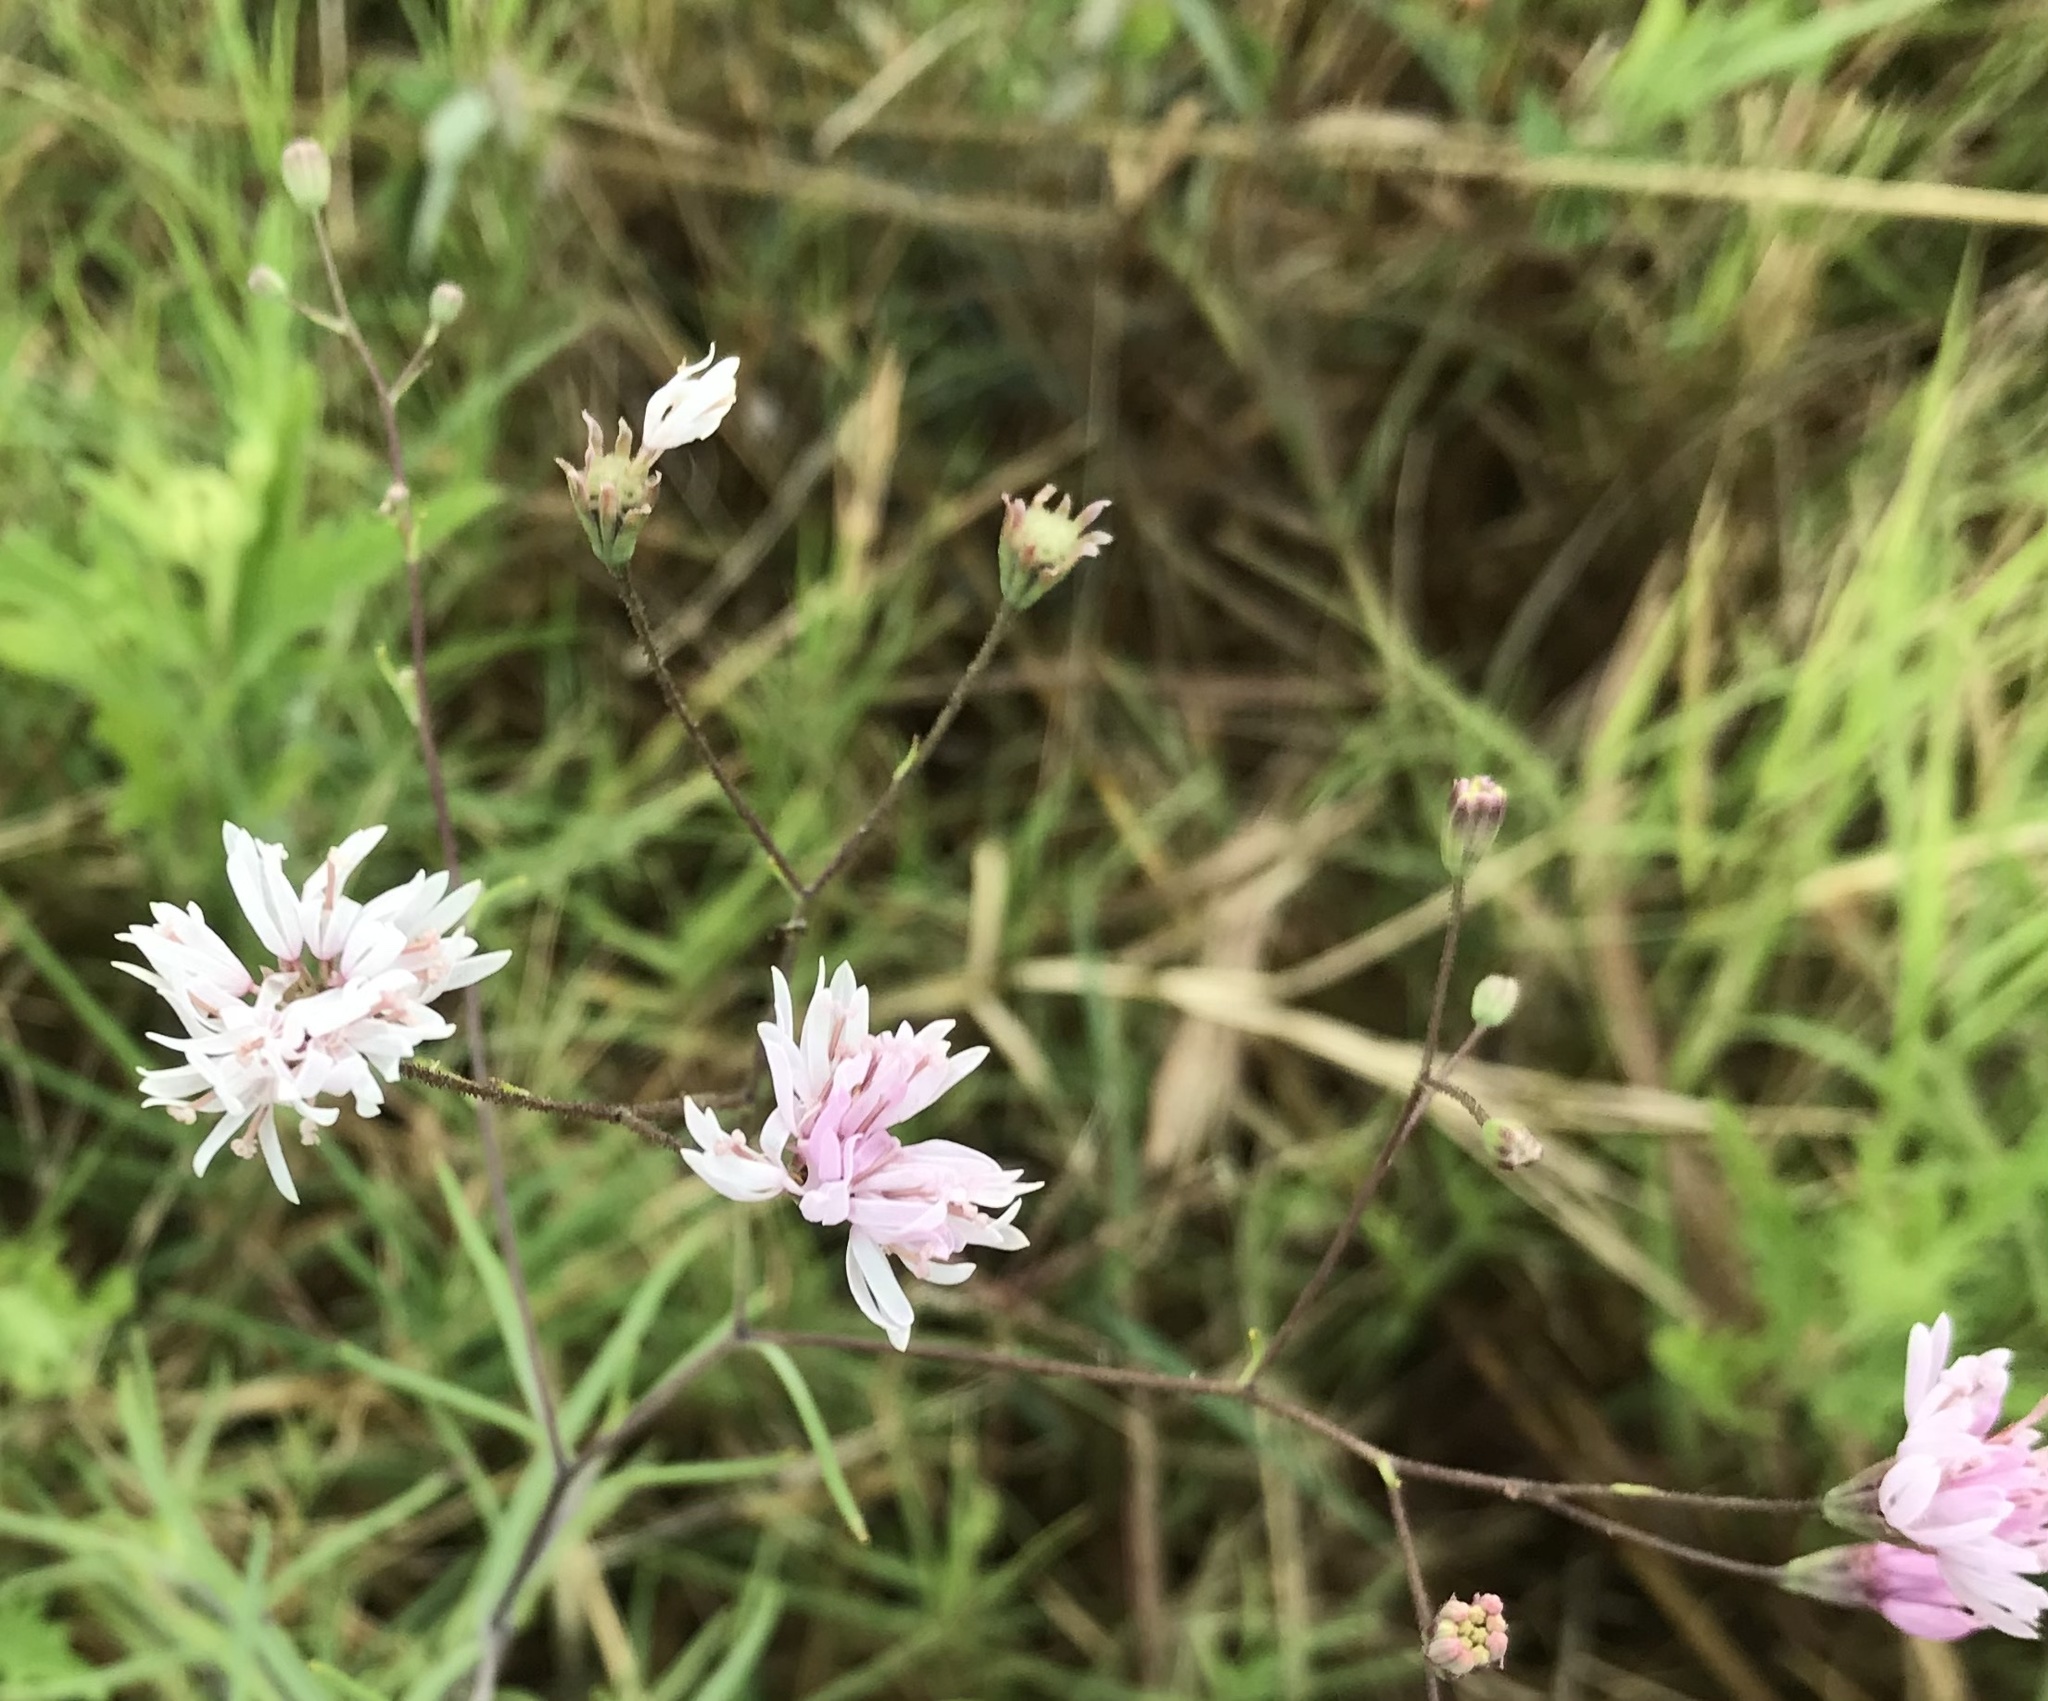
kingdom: Plantae
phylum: Tracheophyta
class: Magnoliopsida
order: Asterales
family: Asteraceae
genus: Palafoxia
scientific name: Palafoxia callosa
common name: Small palafox
